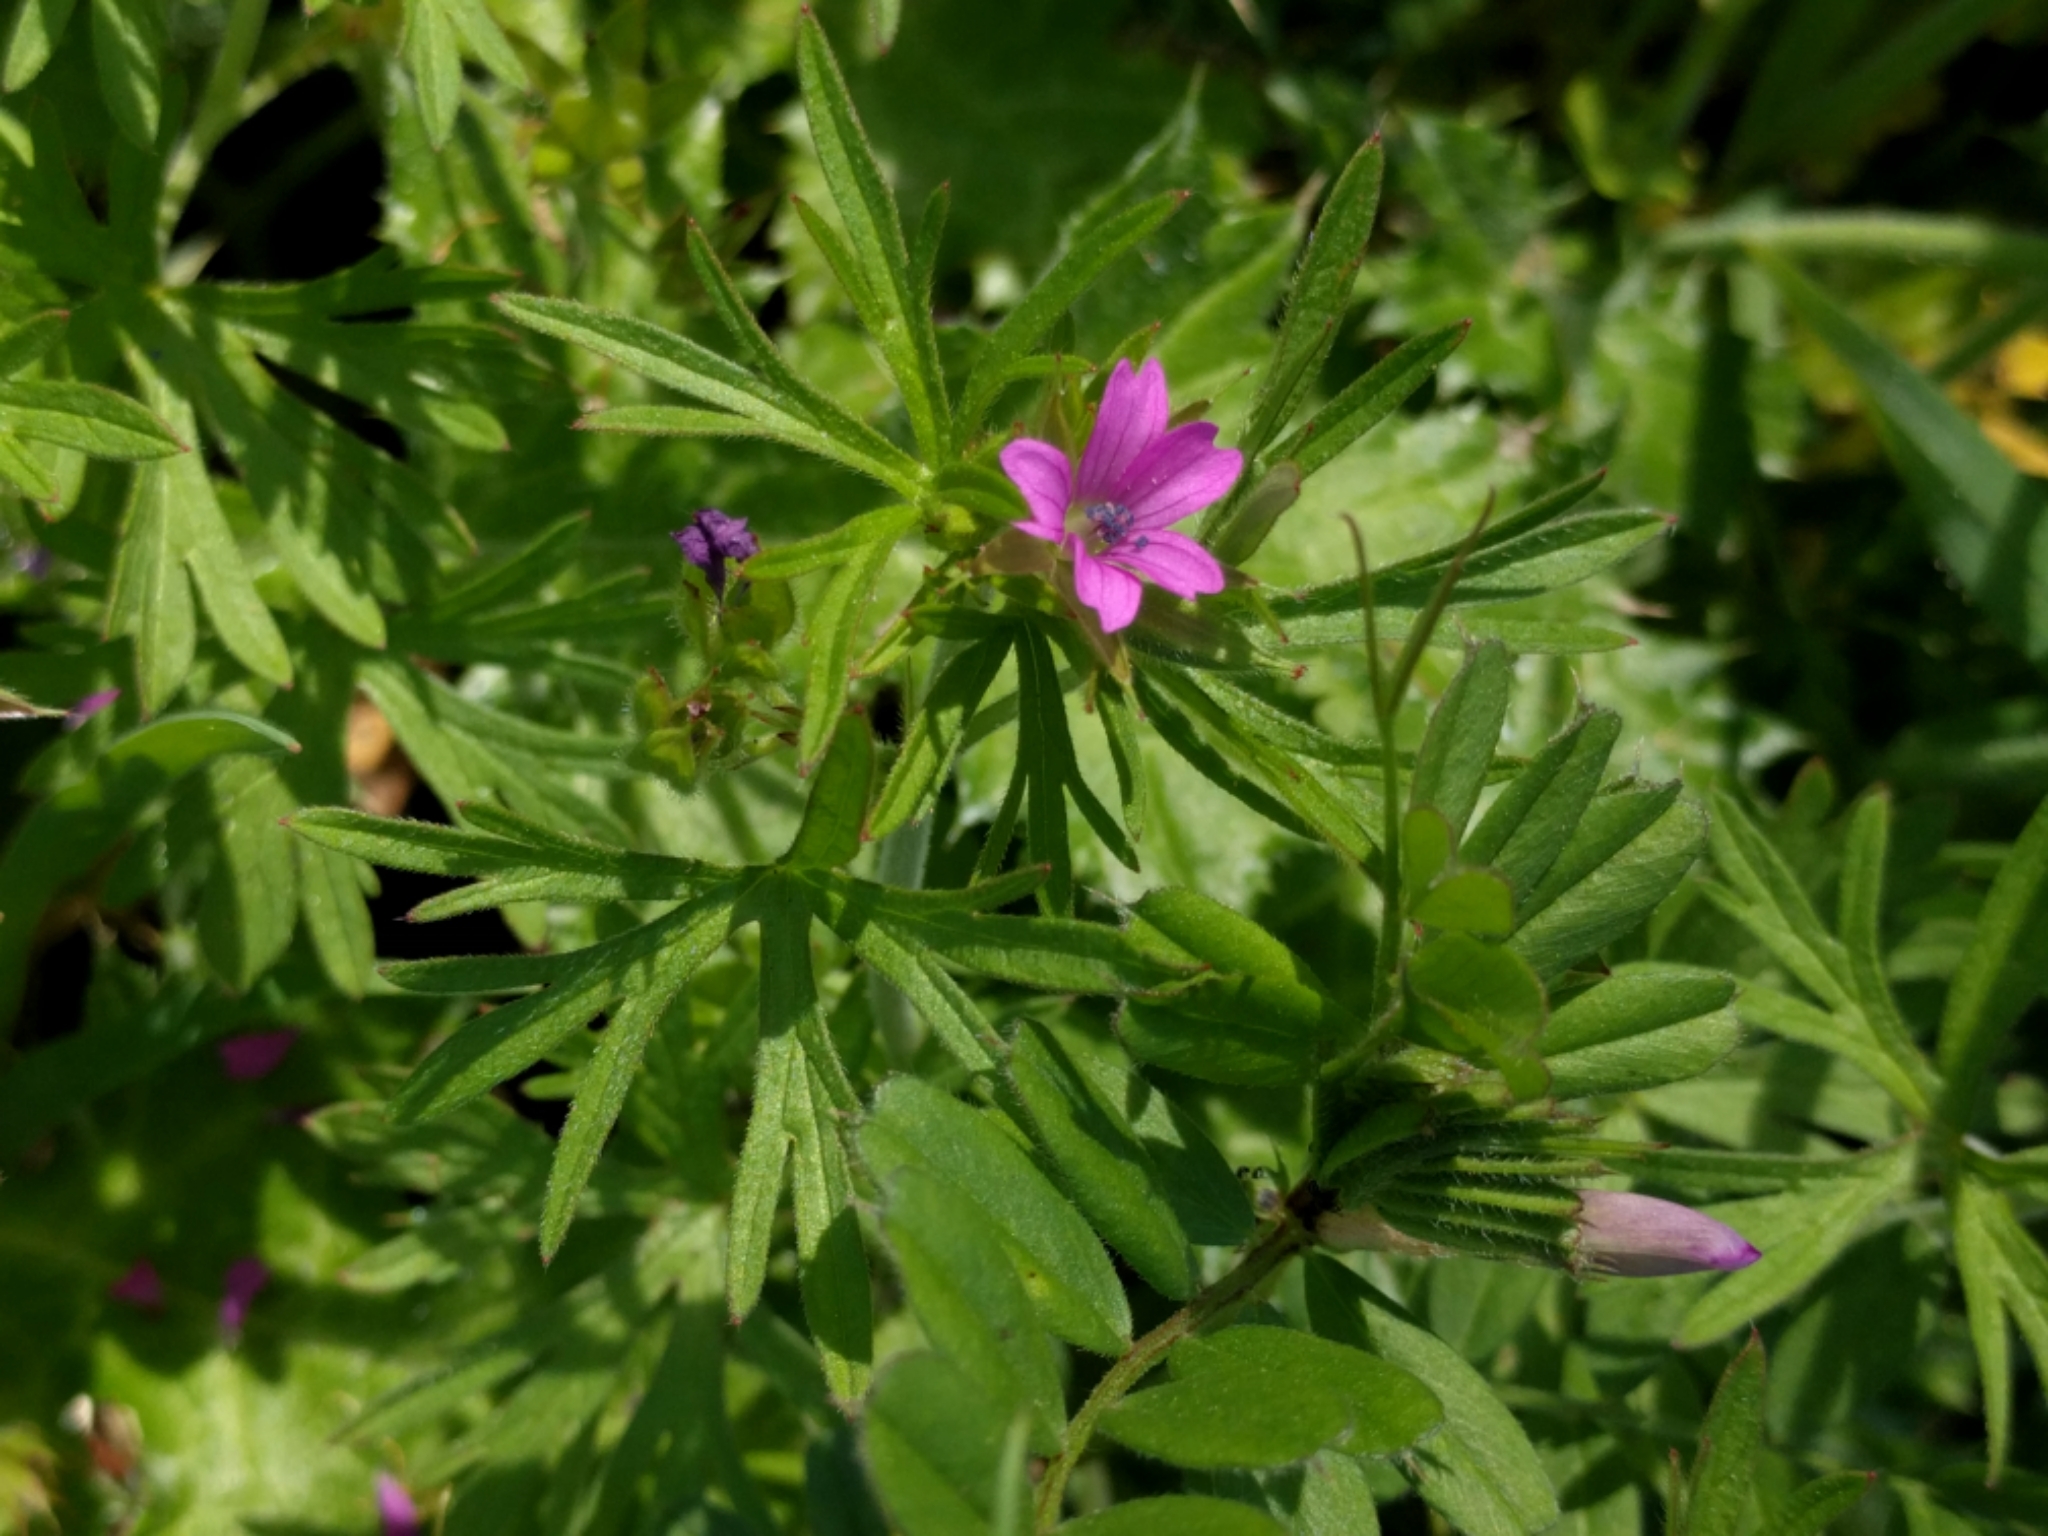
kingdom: Plantae
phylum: Tracheophyta
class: Magnoliopsida
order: Geraniales
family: Geraniaceae
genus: Geranium
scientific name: Geranium dissectum
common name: Cut-leaved crane's-bill
